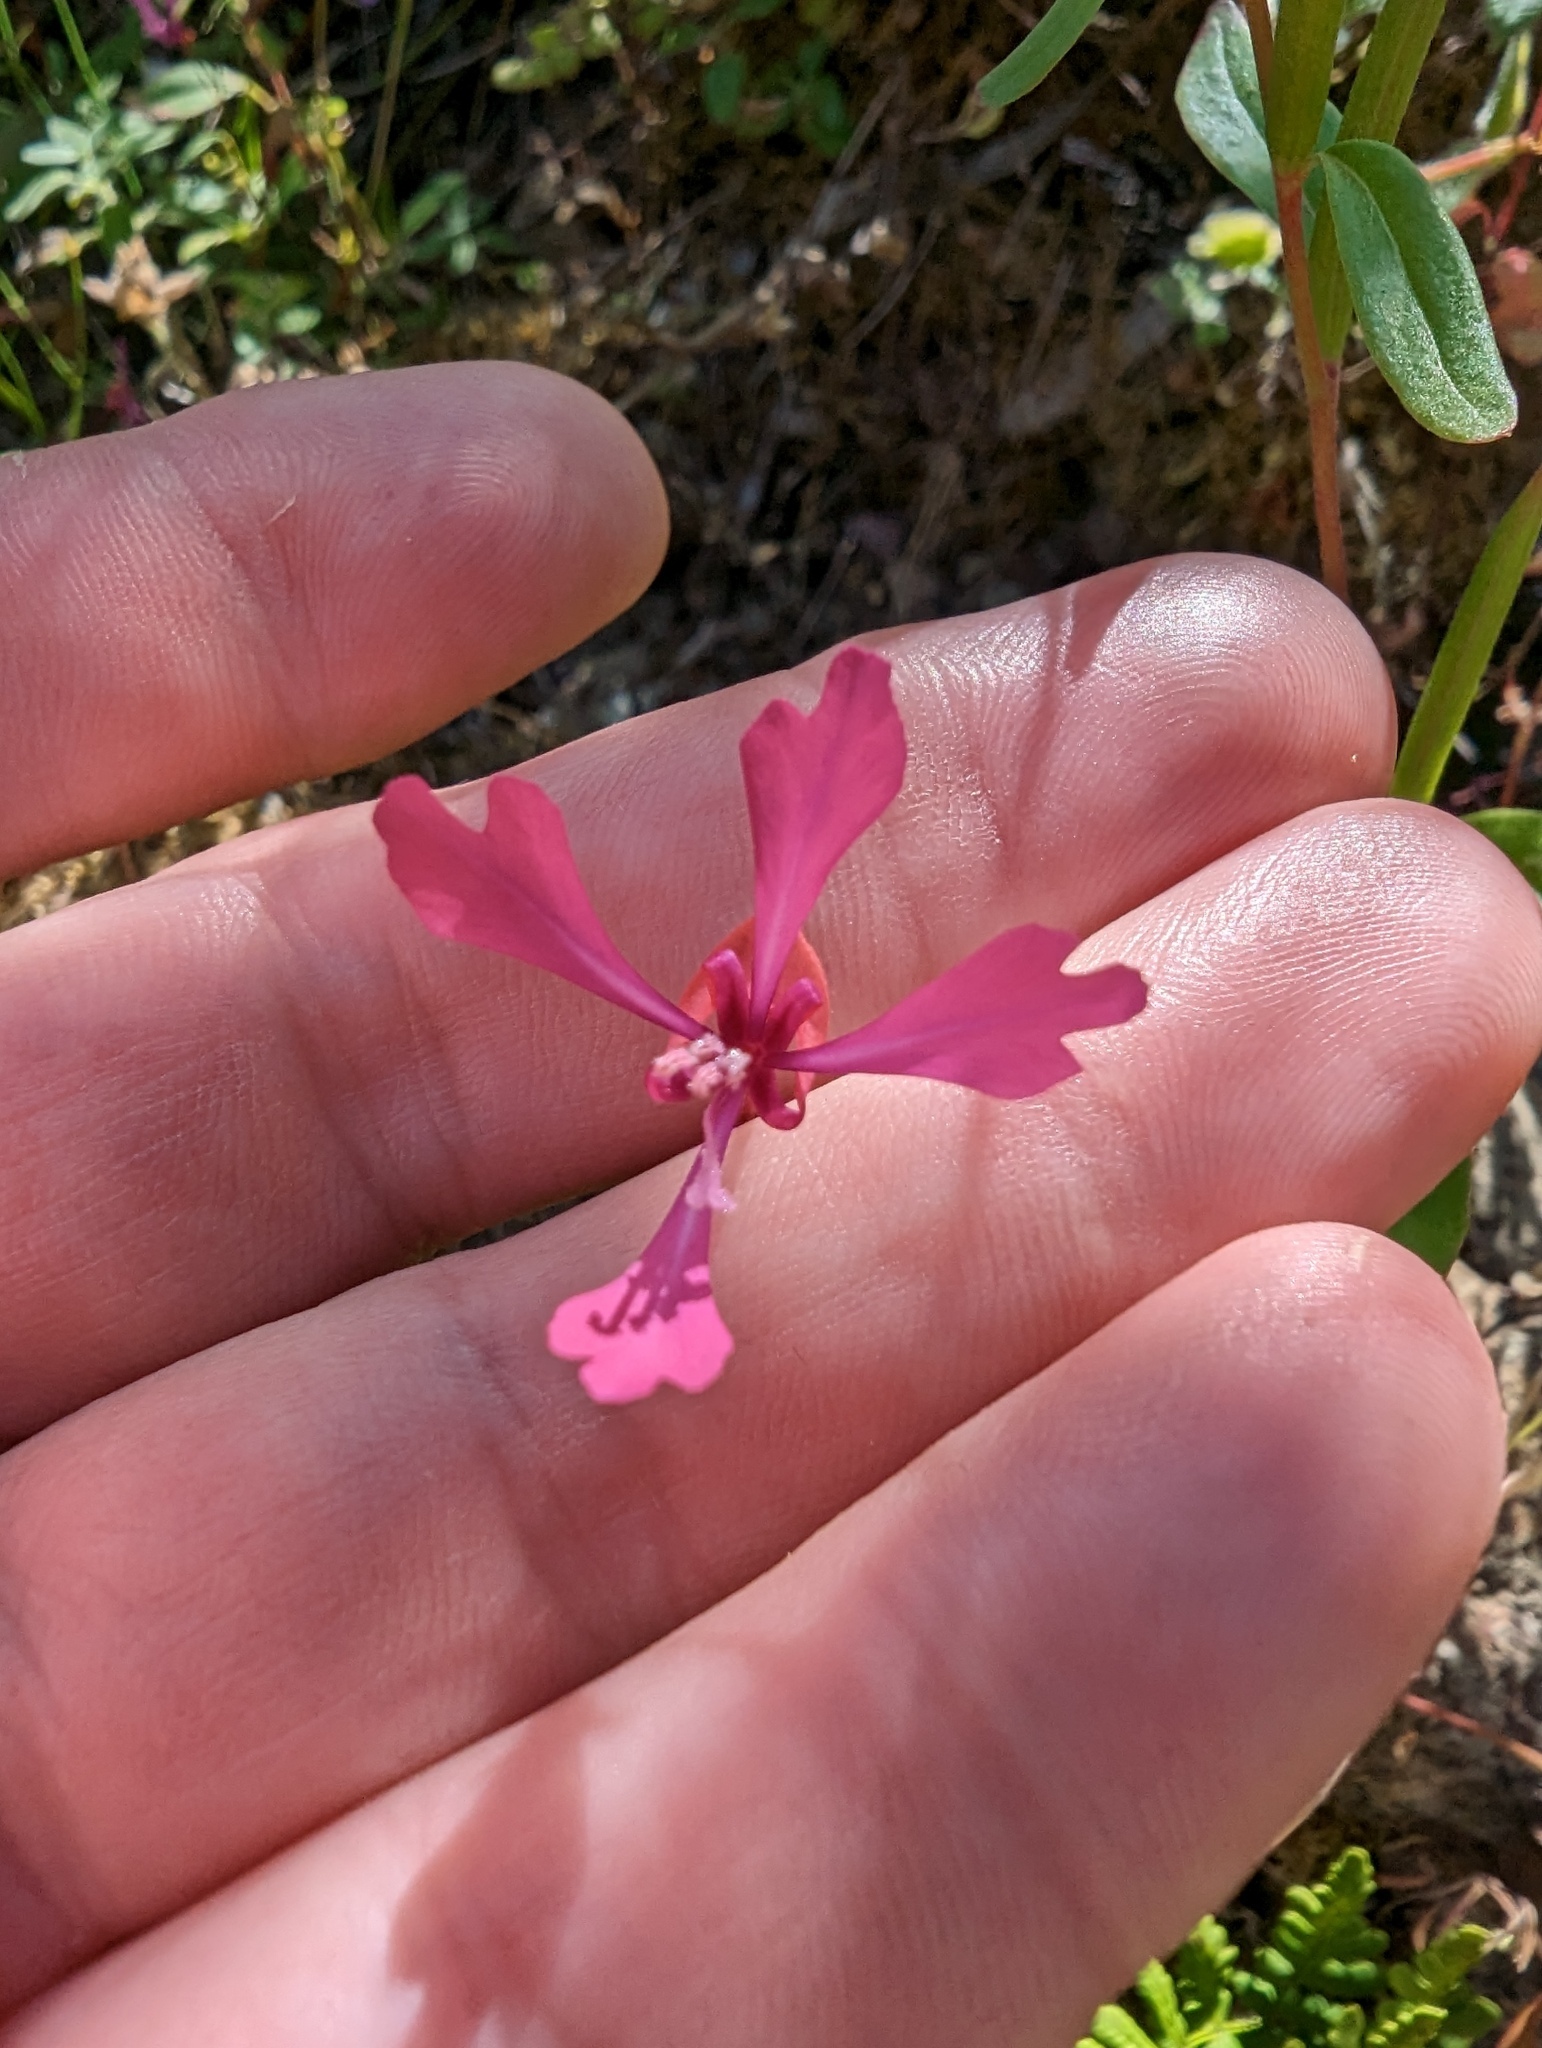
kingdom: Plantae
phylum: Tracheophyta
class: Magnoliopsida
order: Myrtales
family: Onagraceae
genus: Clarkia
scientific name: Clarkia concinna
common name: Red-ribbons
